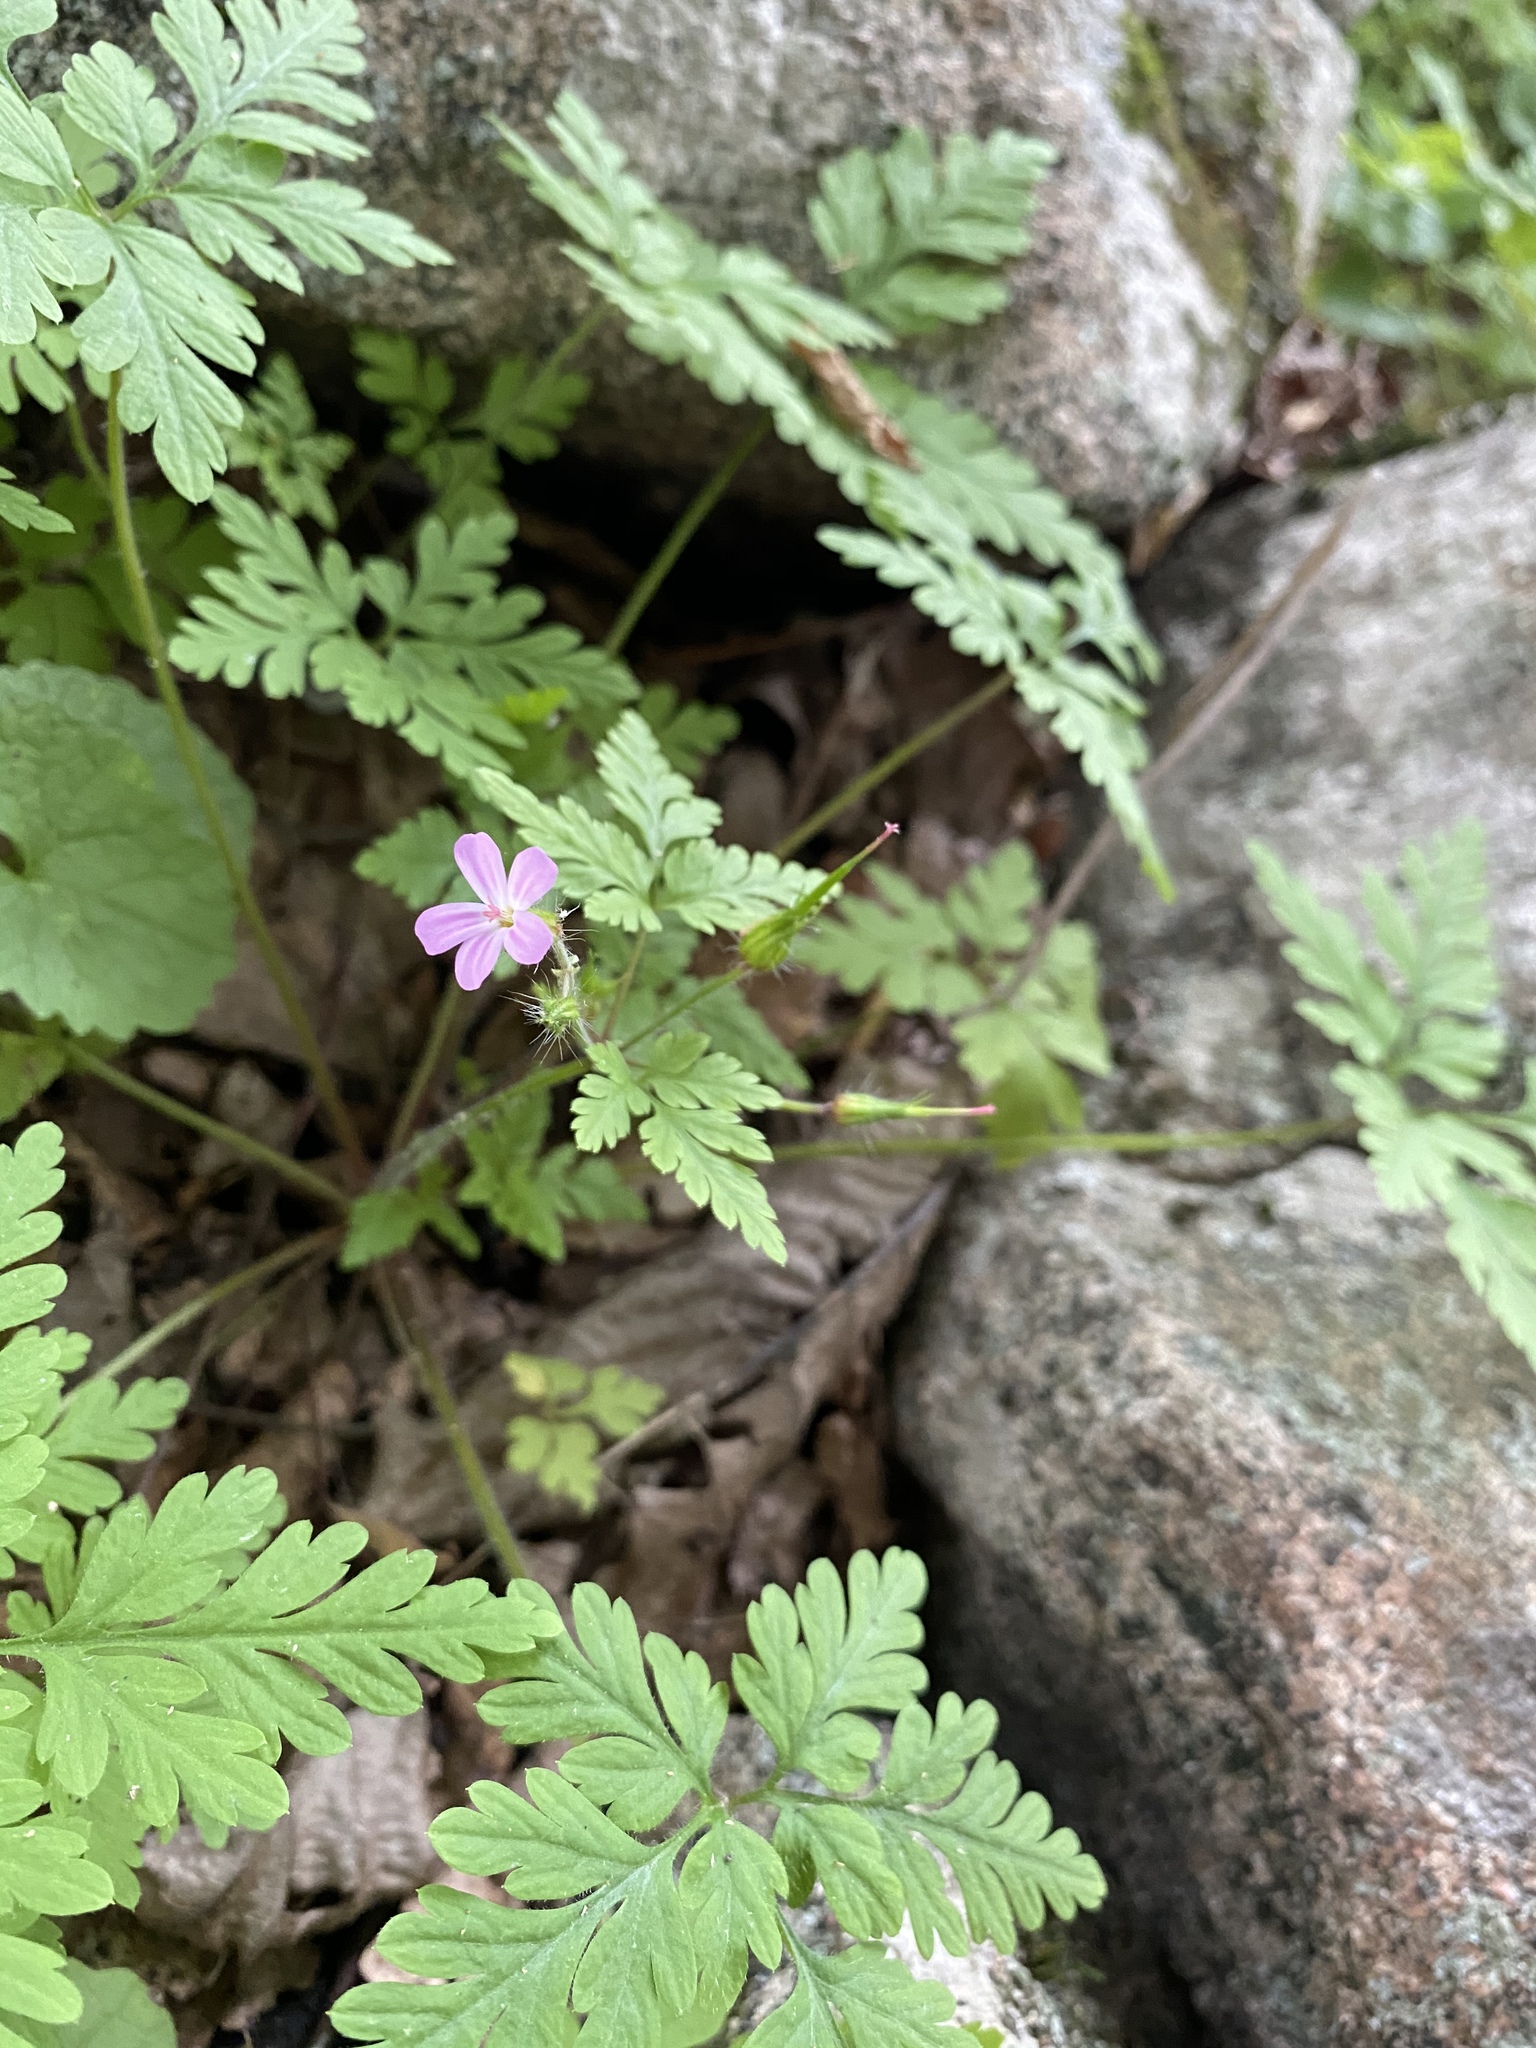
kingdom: Plantae
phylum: Tracheophyta
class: Magnoliopsida
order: Geraniales
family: Geraniaceae
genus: Geranium
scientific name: Geranium robertianum
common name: Herb-robert
